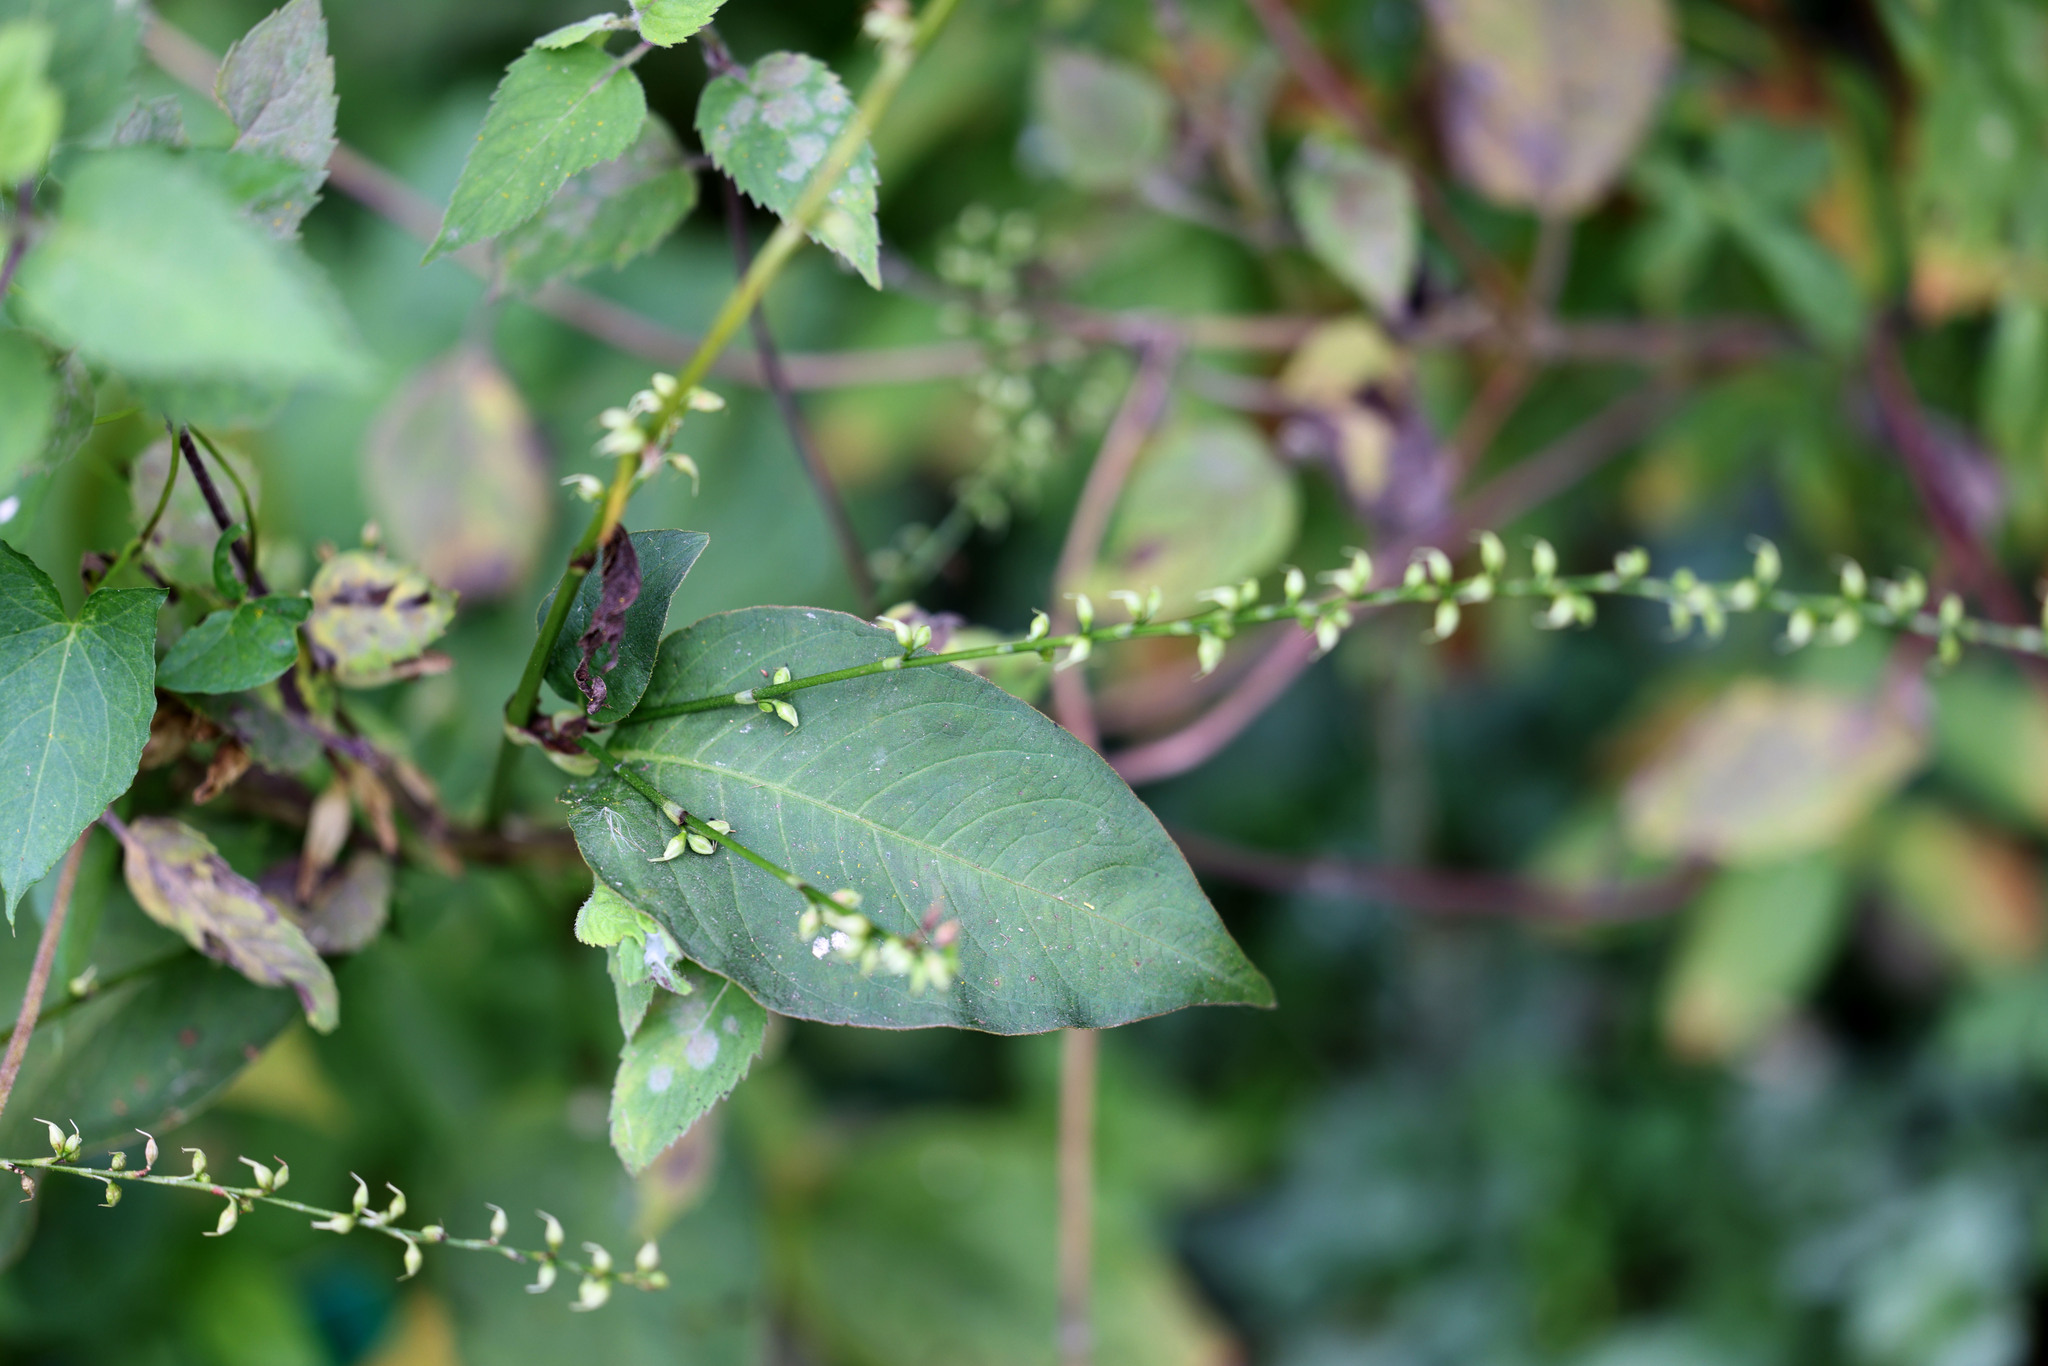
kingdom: Plantae
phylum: Tracheophyta
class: Magnoliopsida
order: Caryophyllales
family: Polygonaceae
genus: Persicaria
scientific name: Persicaria virginiana
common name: Jumpseed
